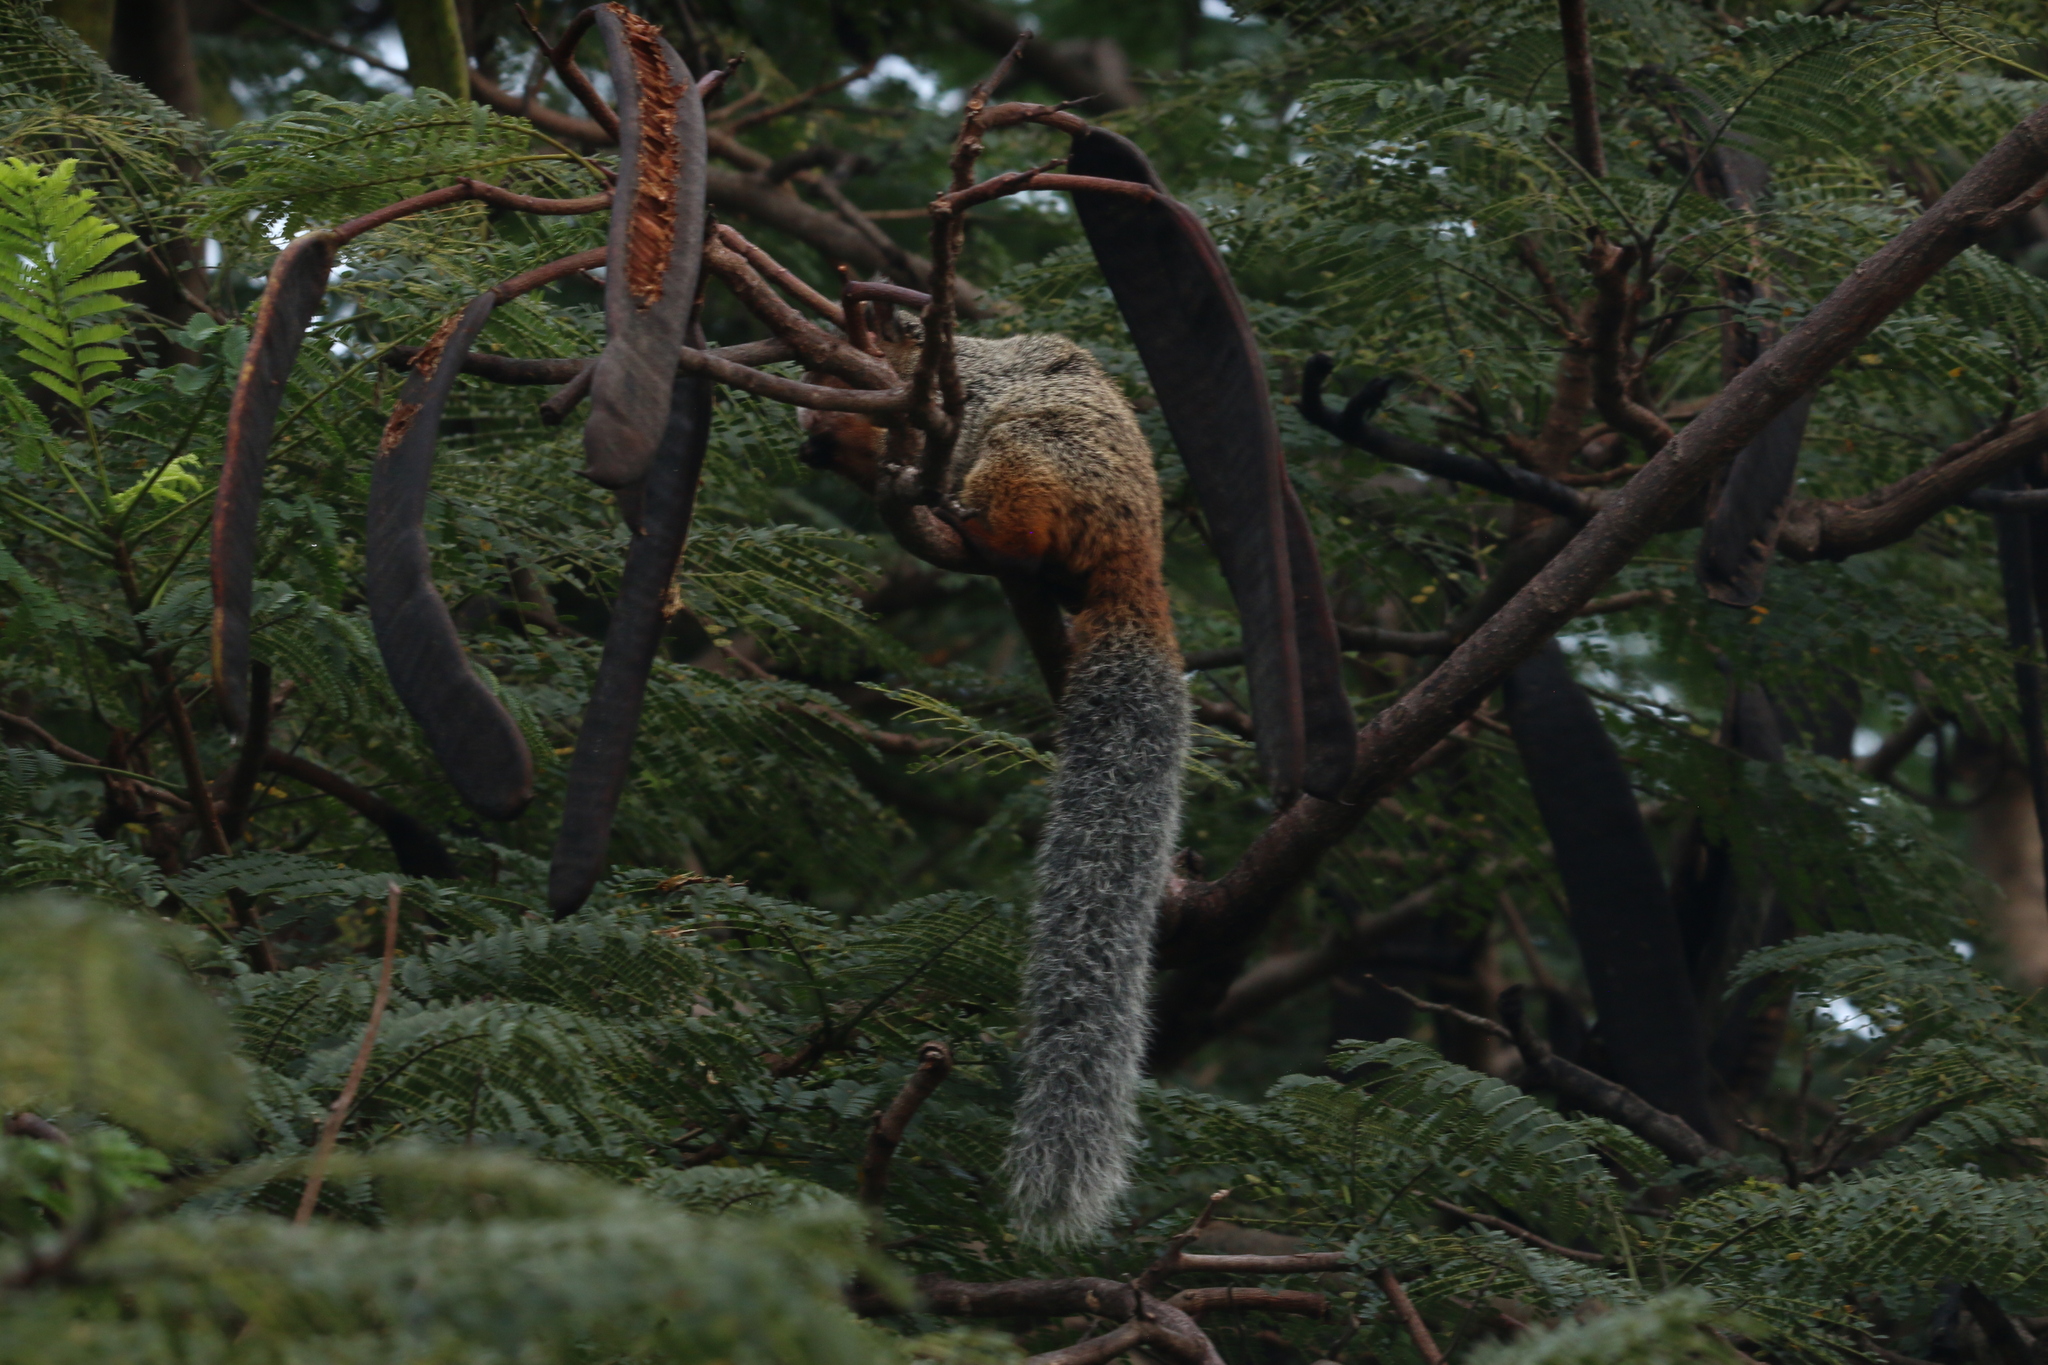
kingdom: Animalia
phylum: Chordata
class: Mammalia
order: Rodentia
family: Sciuridae
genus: Sciurus
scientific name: Sciurus stramineus
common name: Guayaquil squirrel
